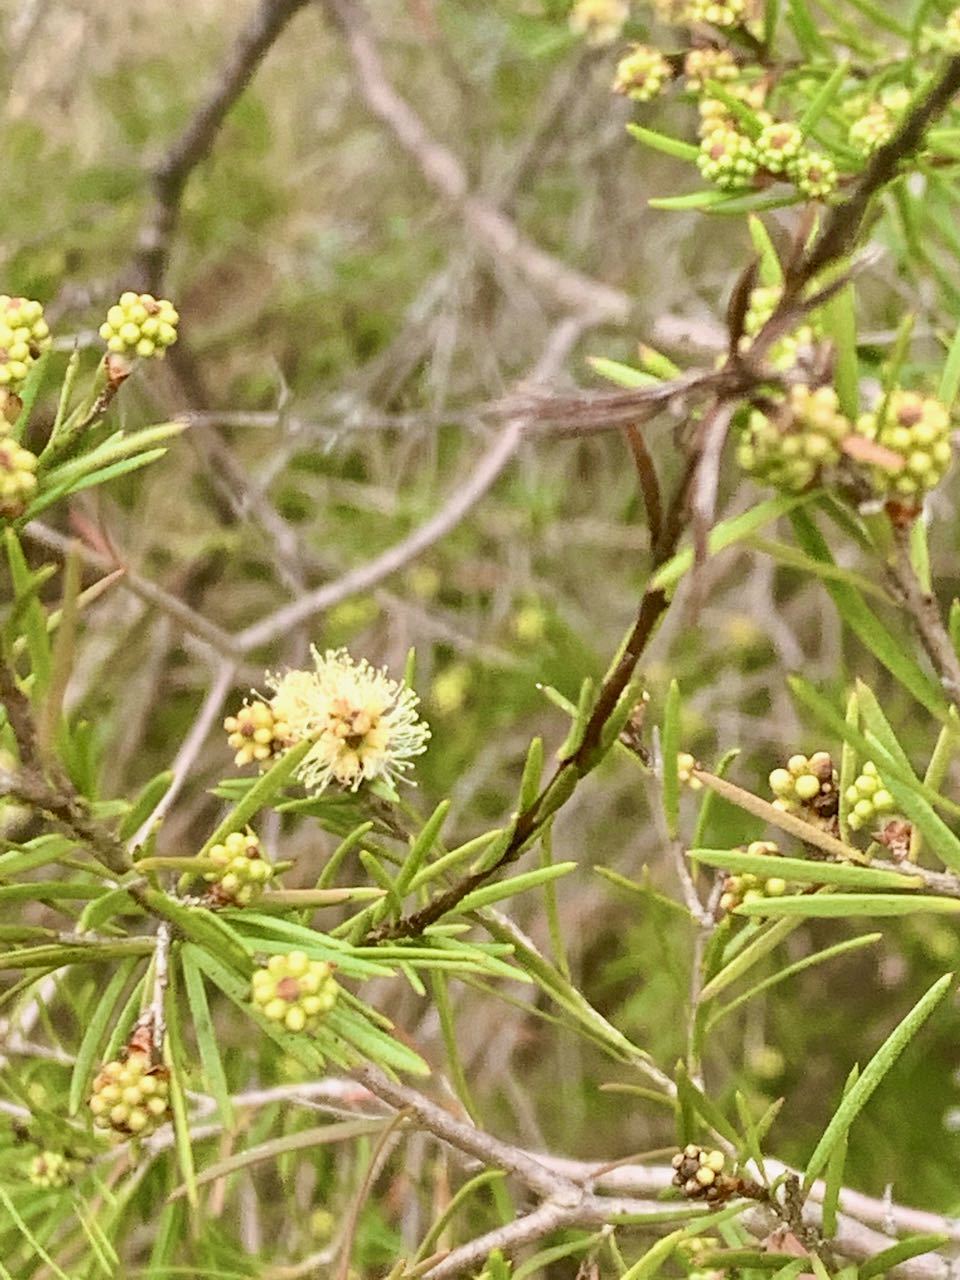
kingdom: Plantae
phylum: Tracheophyta
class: Magnoliopsida
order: Myrtales
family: Myrtaceae
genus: Melaleuca
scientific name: Melaleuca nodosa
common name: Prickly-leaf paperbark
